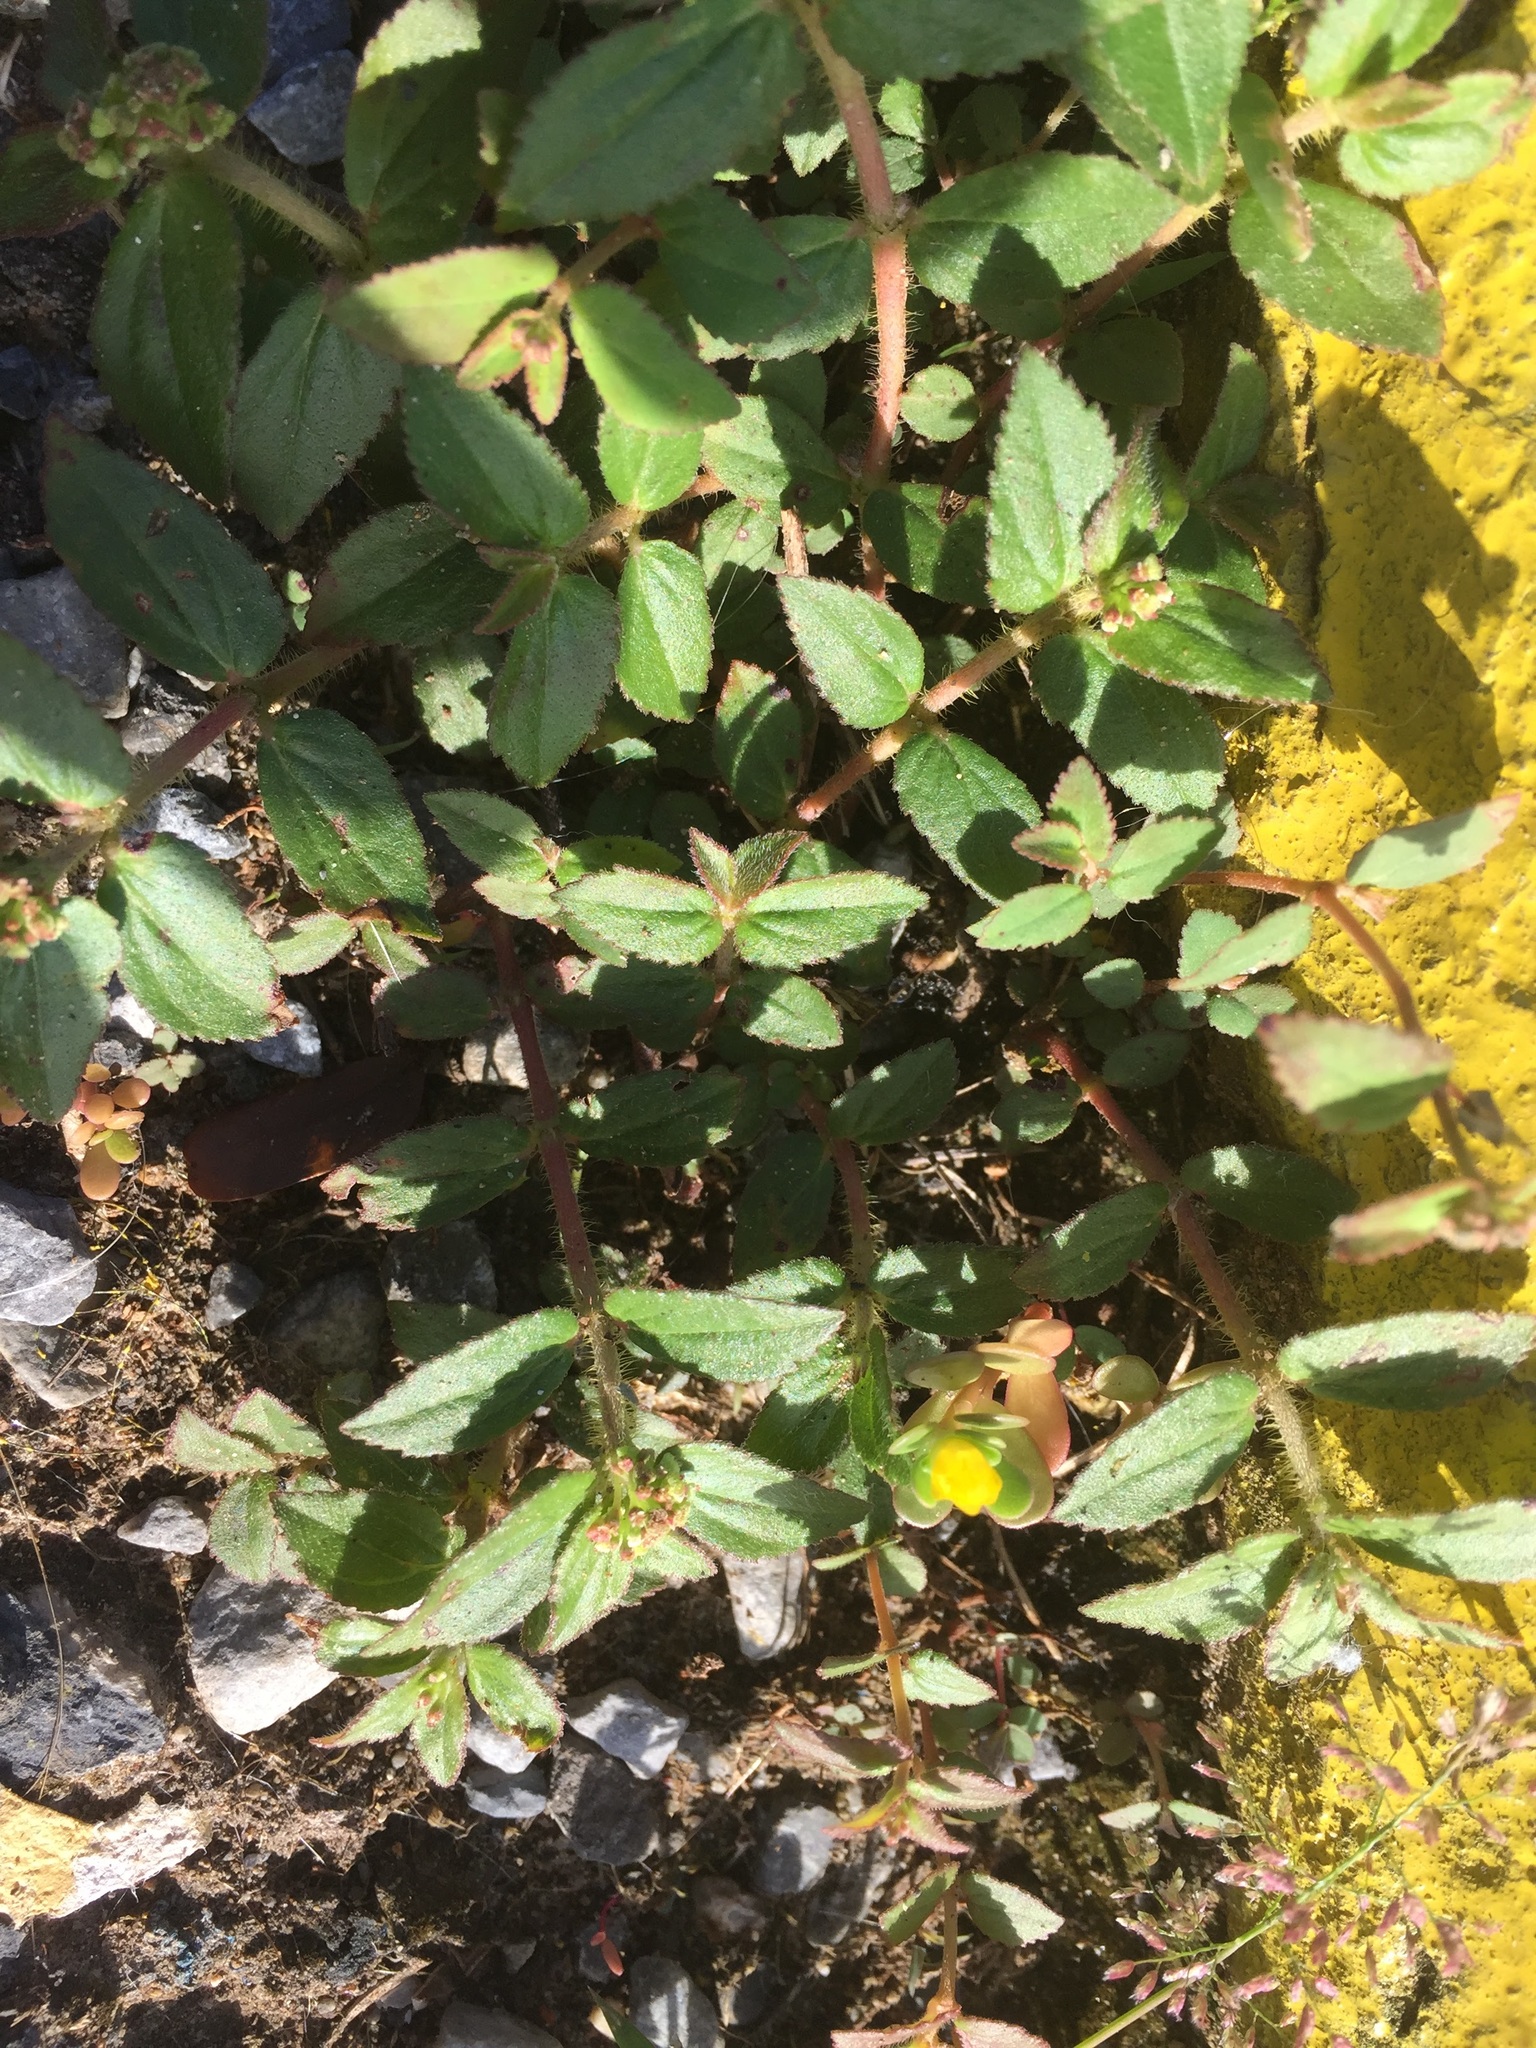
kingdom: Plantae
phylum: Tracheophyta
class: Magnoliopsida
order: Malpighiales
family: Euphorbiaceae
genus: Euphorbia
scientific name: Euphorbia hirta
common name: Pillpod sandmat
